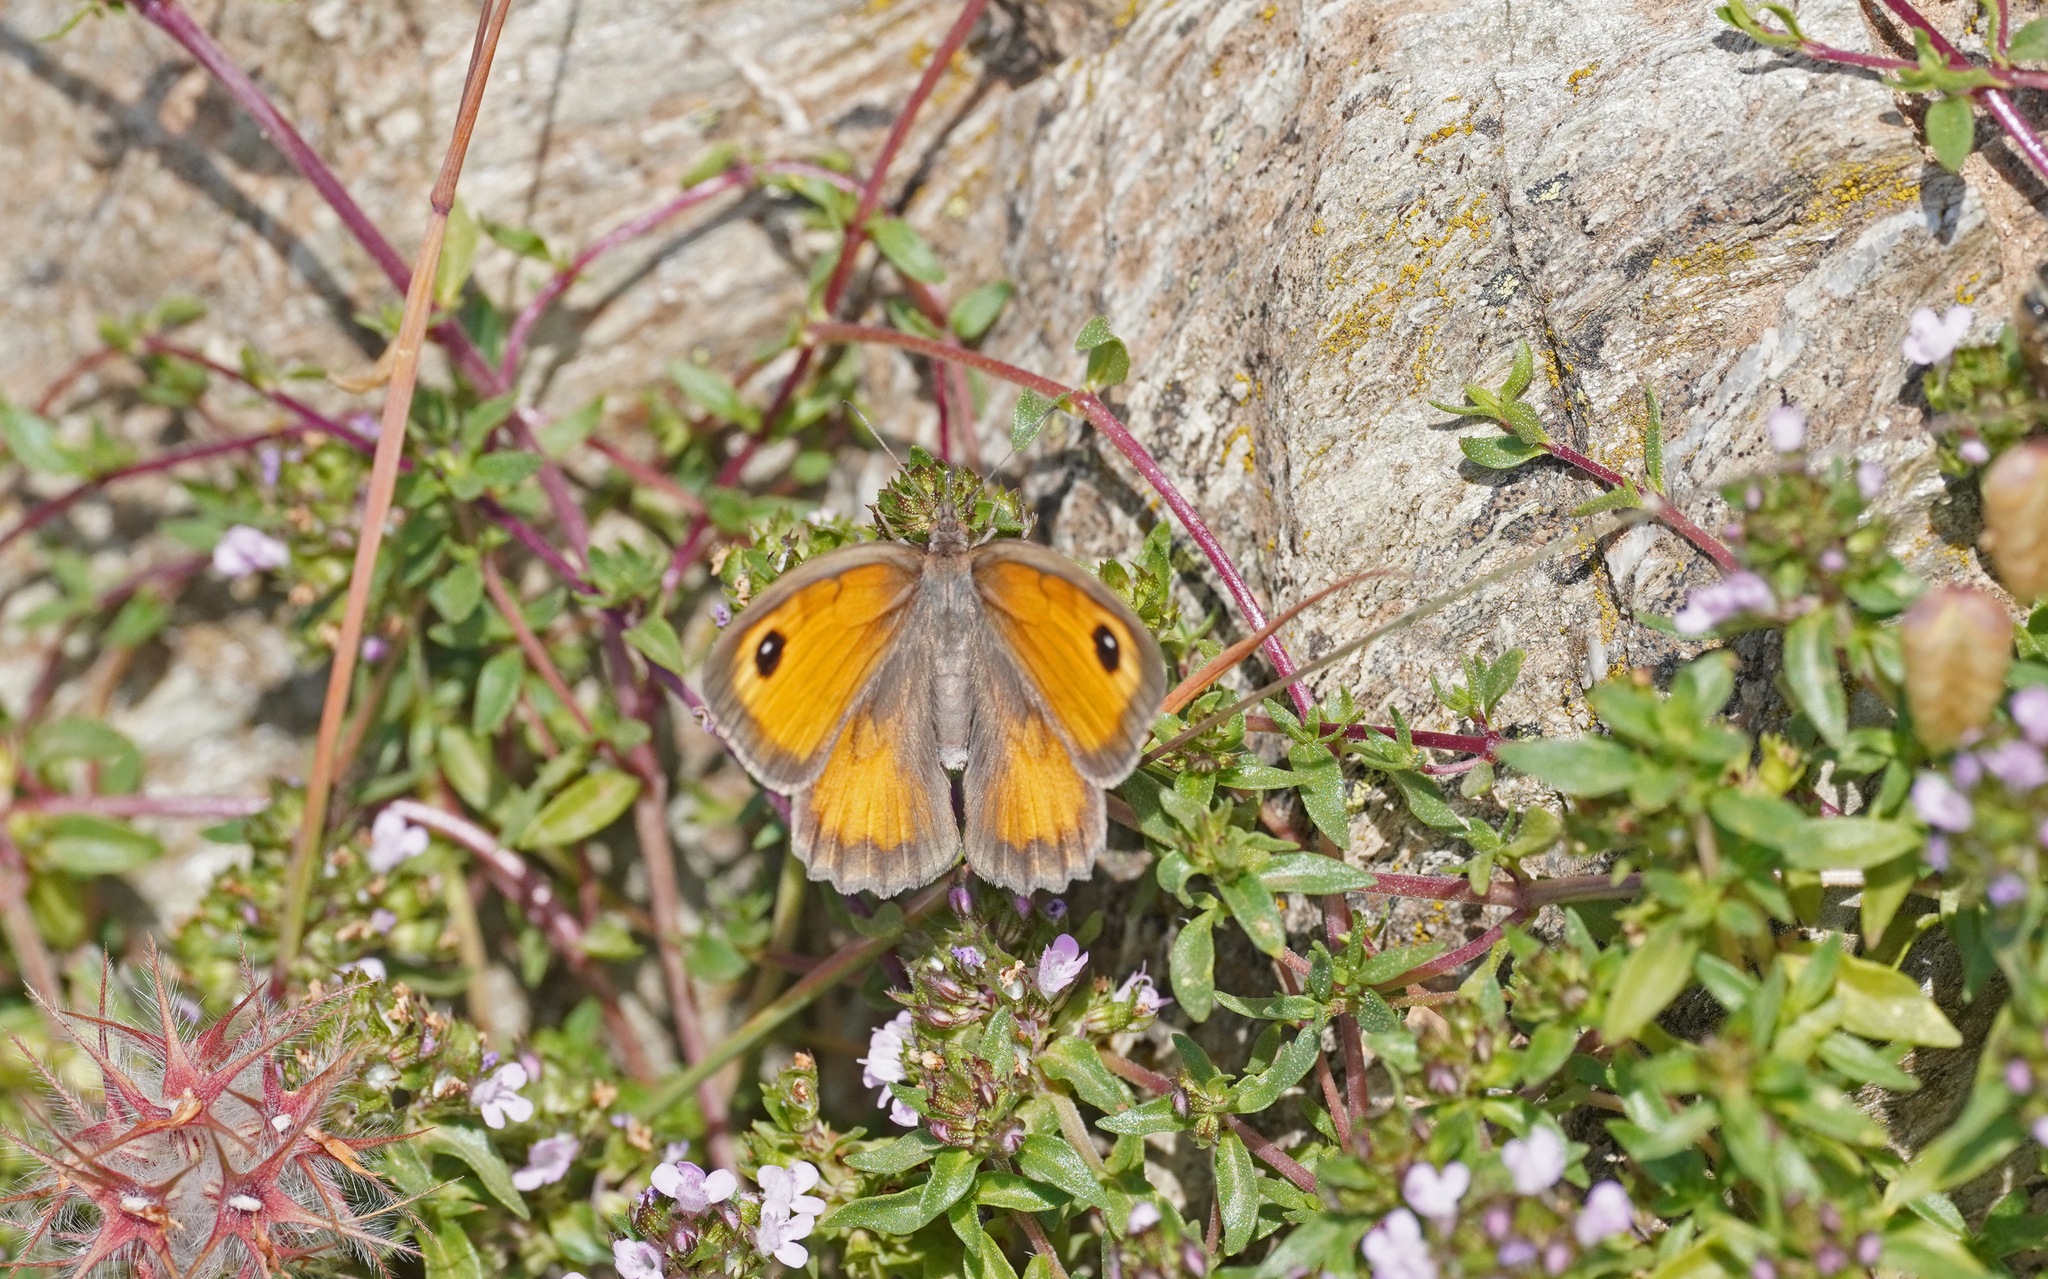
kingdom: Animalia
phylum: Arthropoda
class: Insecta
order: Lepidoptera
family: Nymphalidae
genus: Maniola
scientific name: Maniola nurag
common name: Sardinian meadow brown
